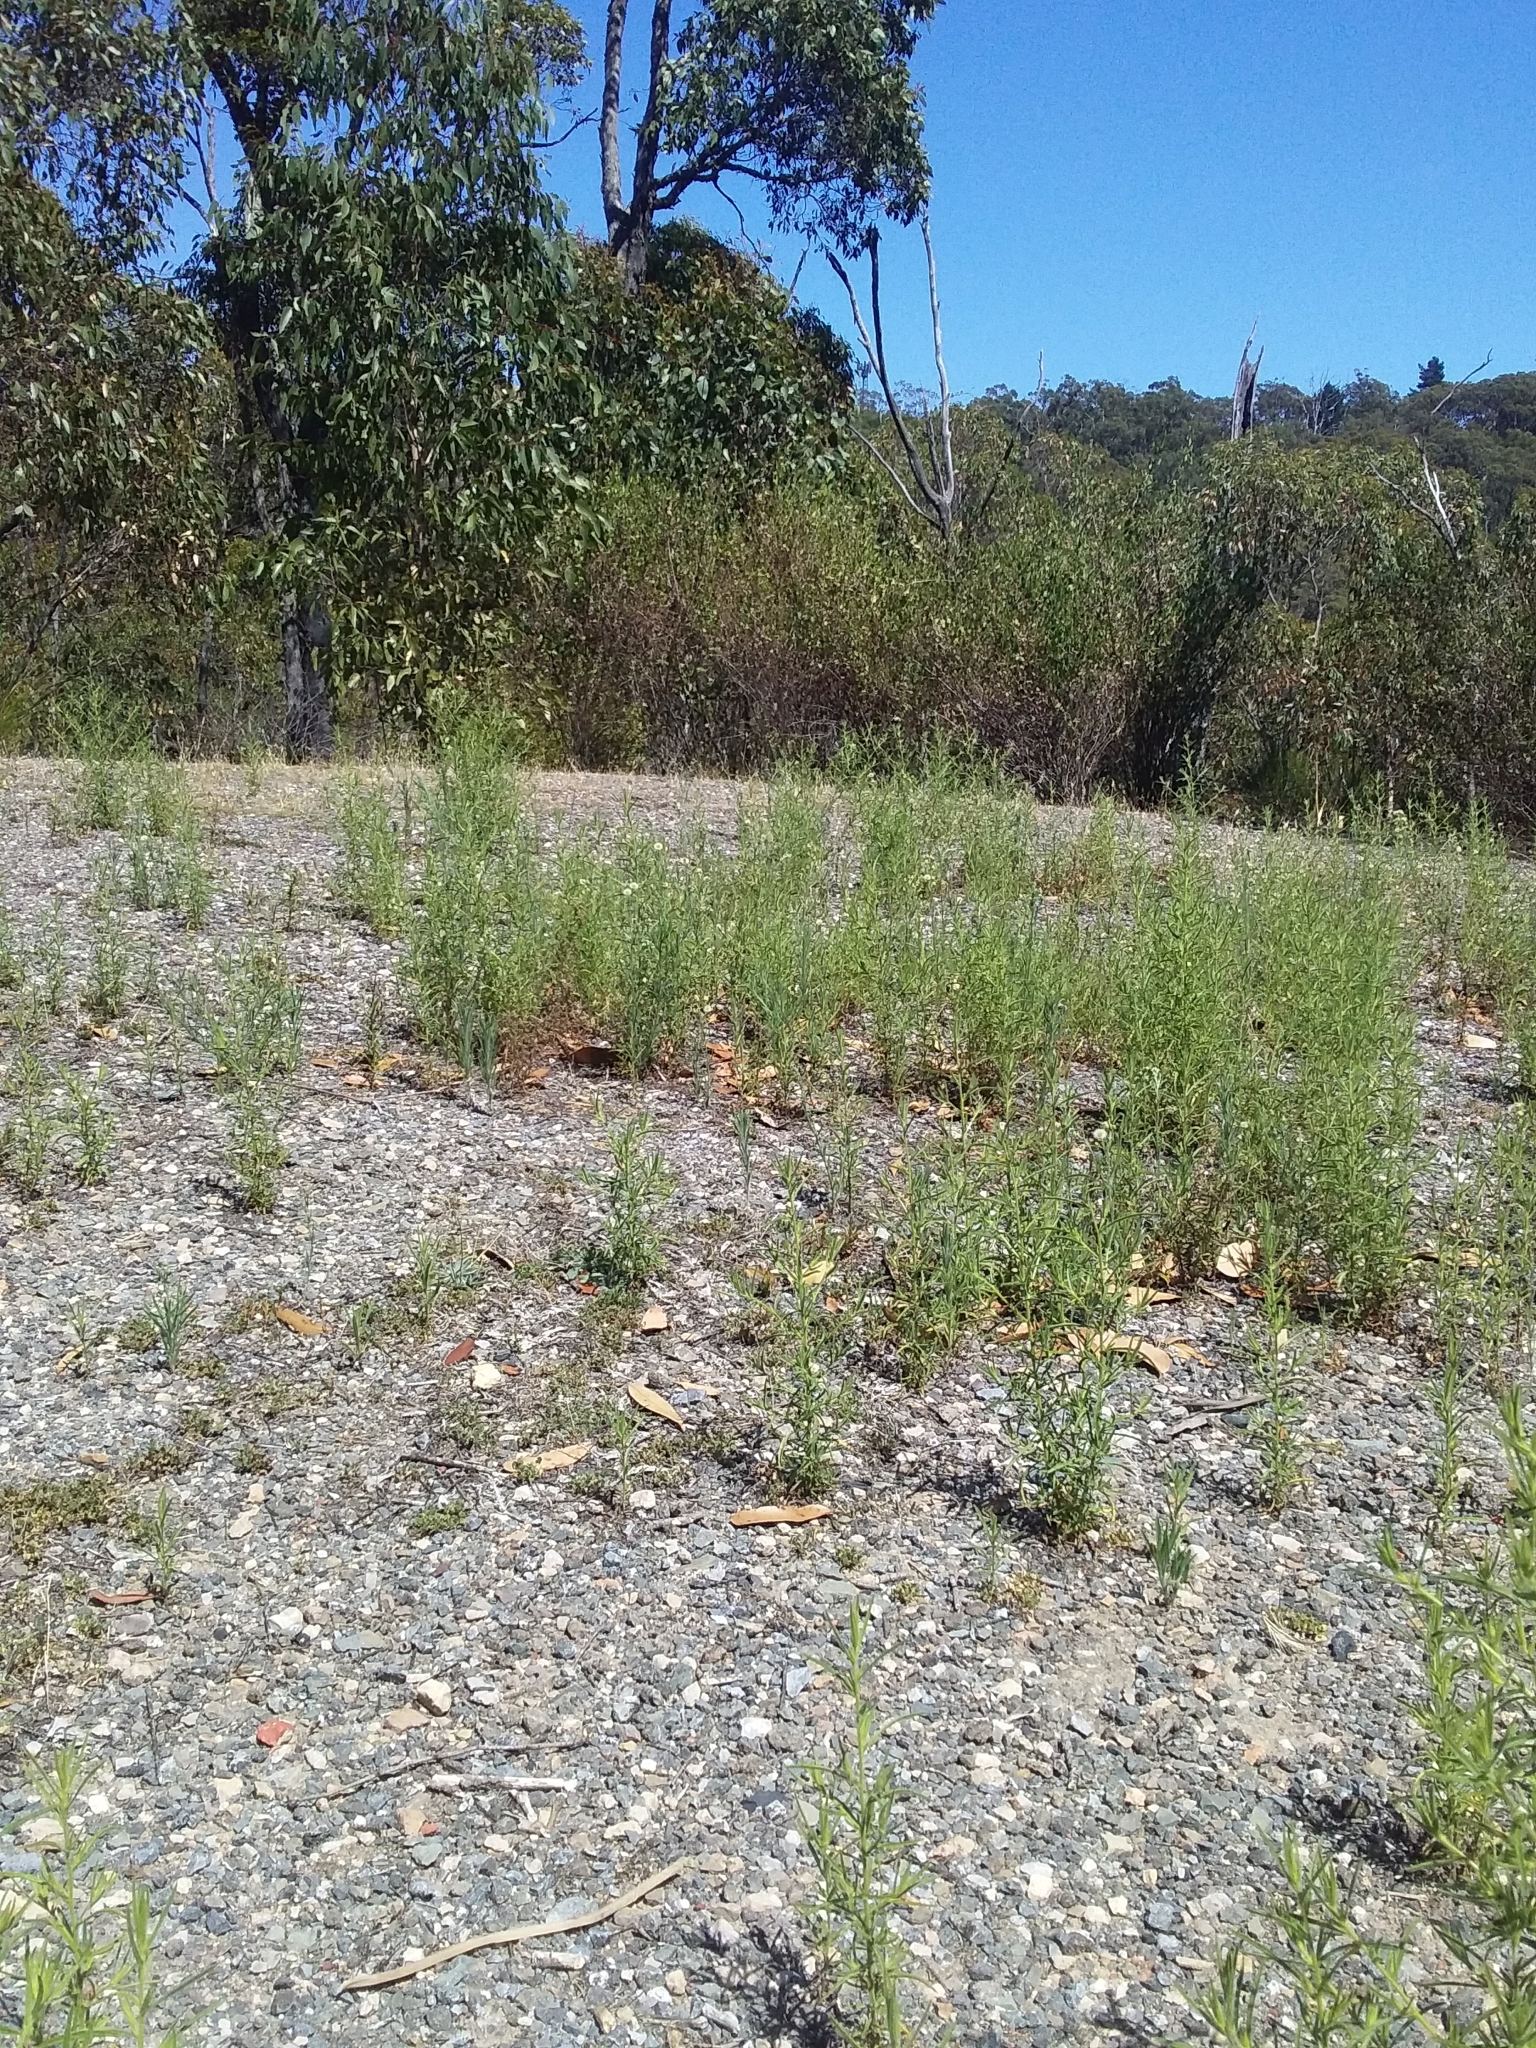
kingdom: Plantae
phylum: Tracheophyta
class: Magnoliopsida
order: Asterales
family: Asteraceae
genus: Dittrichia
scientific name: Dittrichia graveolens
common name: Stinking fleabane
